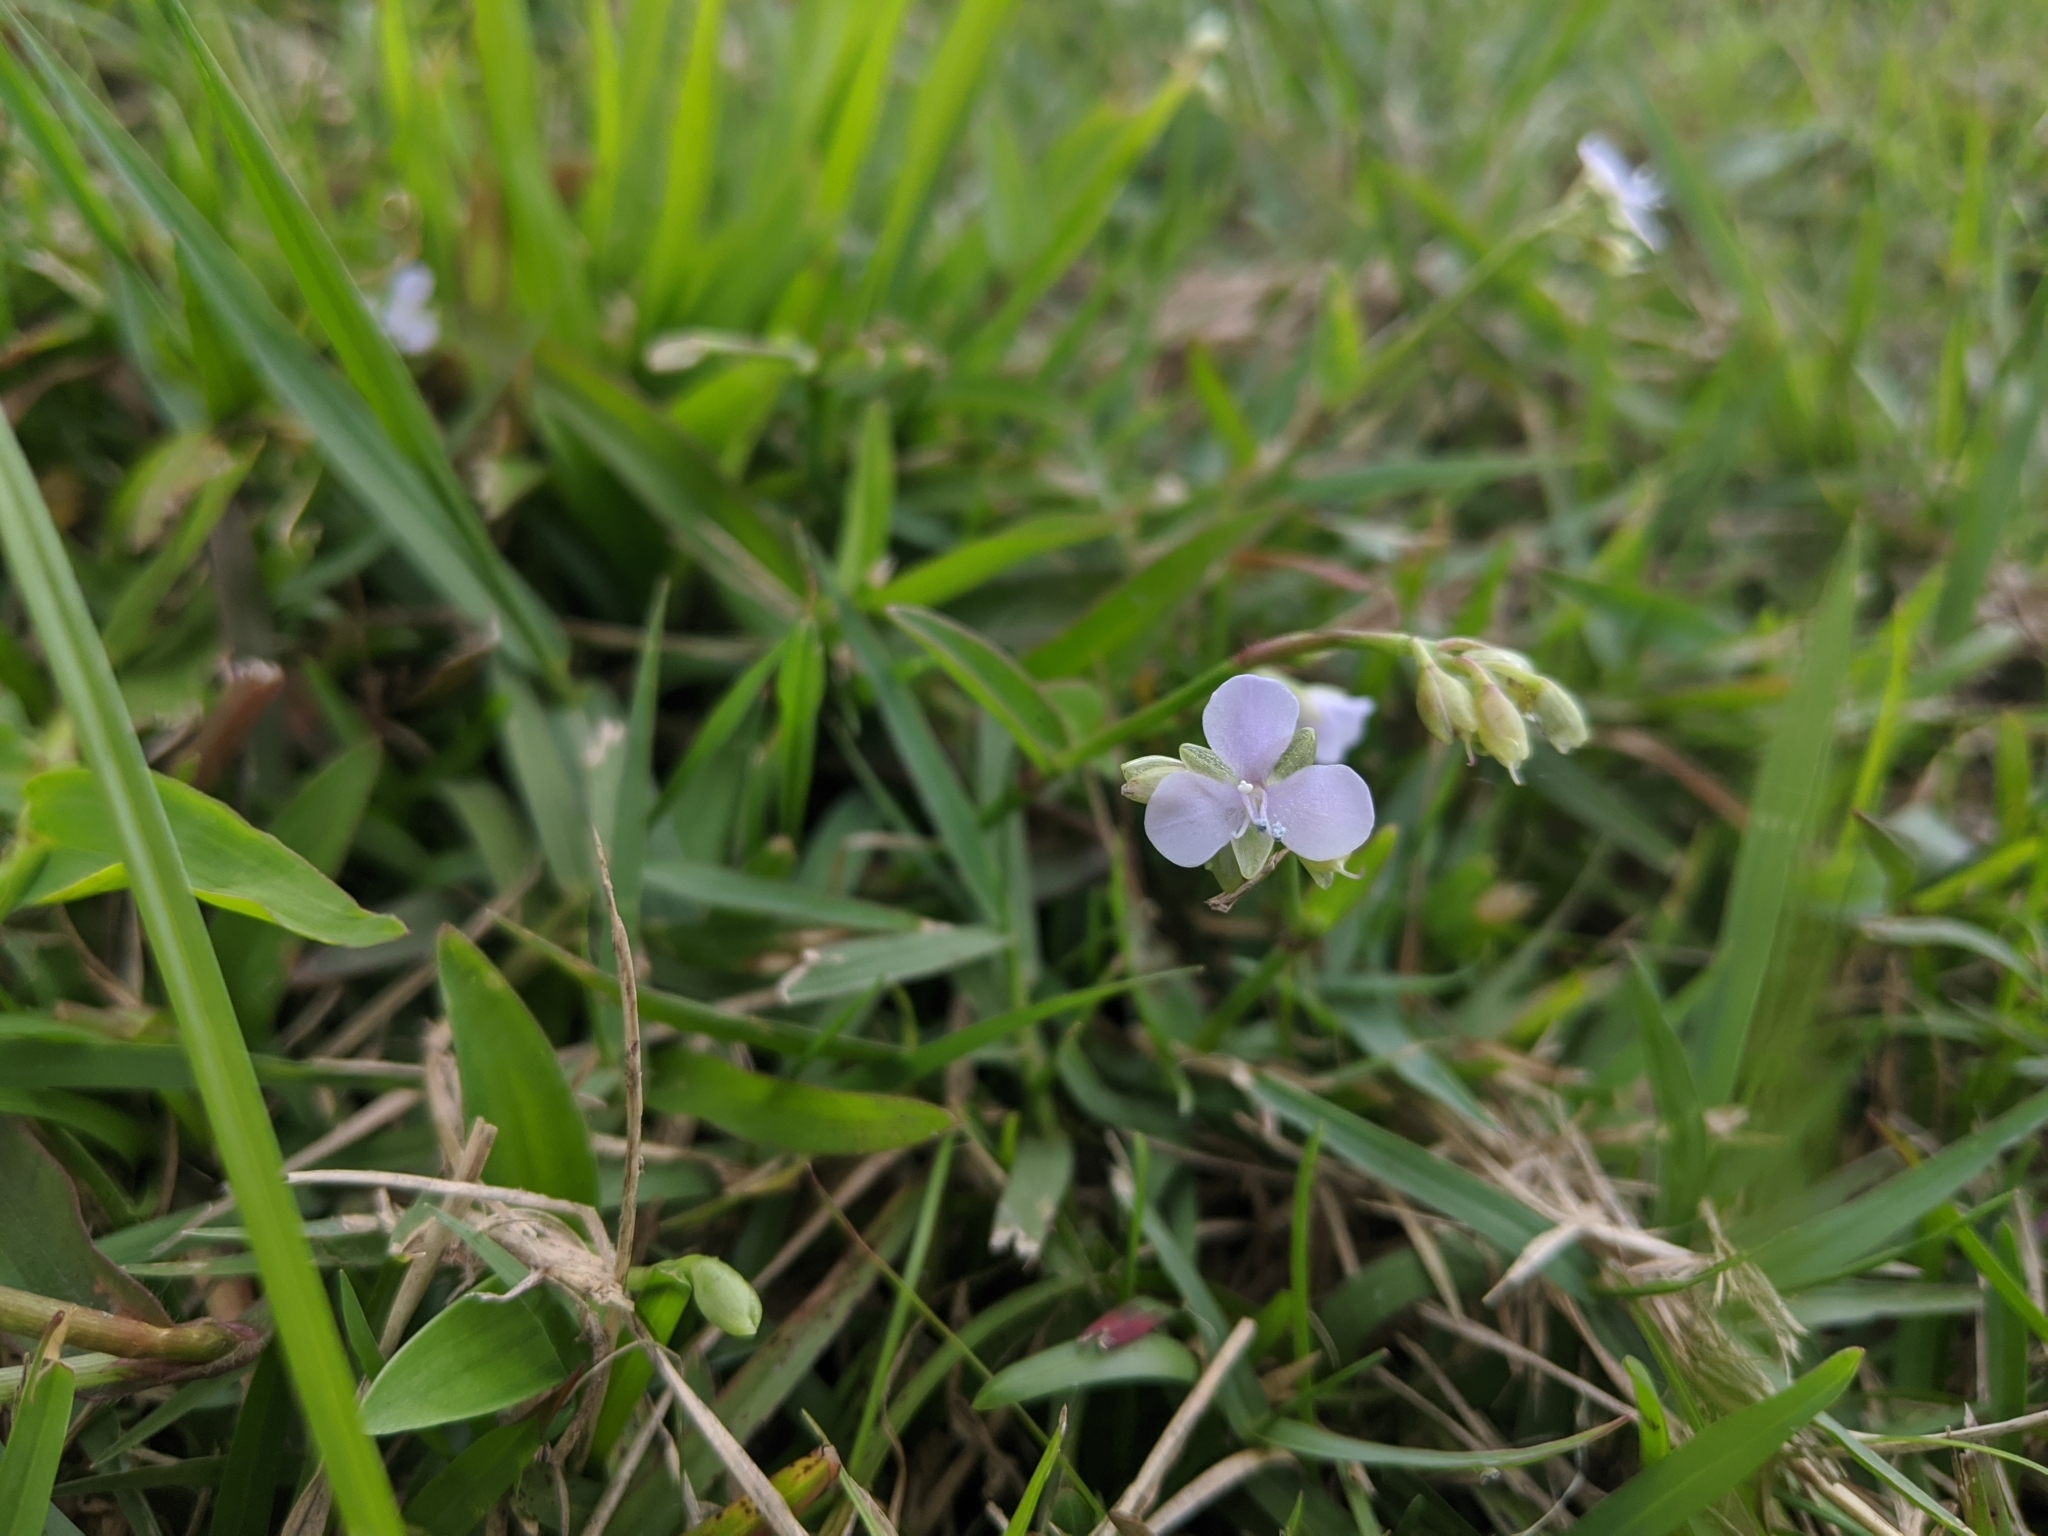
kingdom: Plantae
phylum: Tracheophyta
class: Liliopsida
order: Commelinales
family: Commelinaceae
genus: Murdannia
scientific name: Murdannia loriformis
